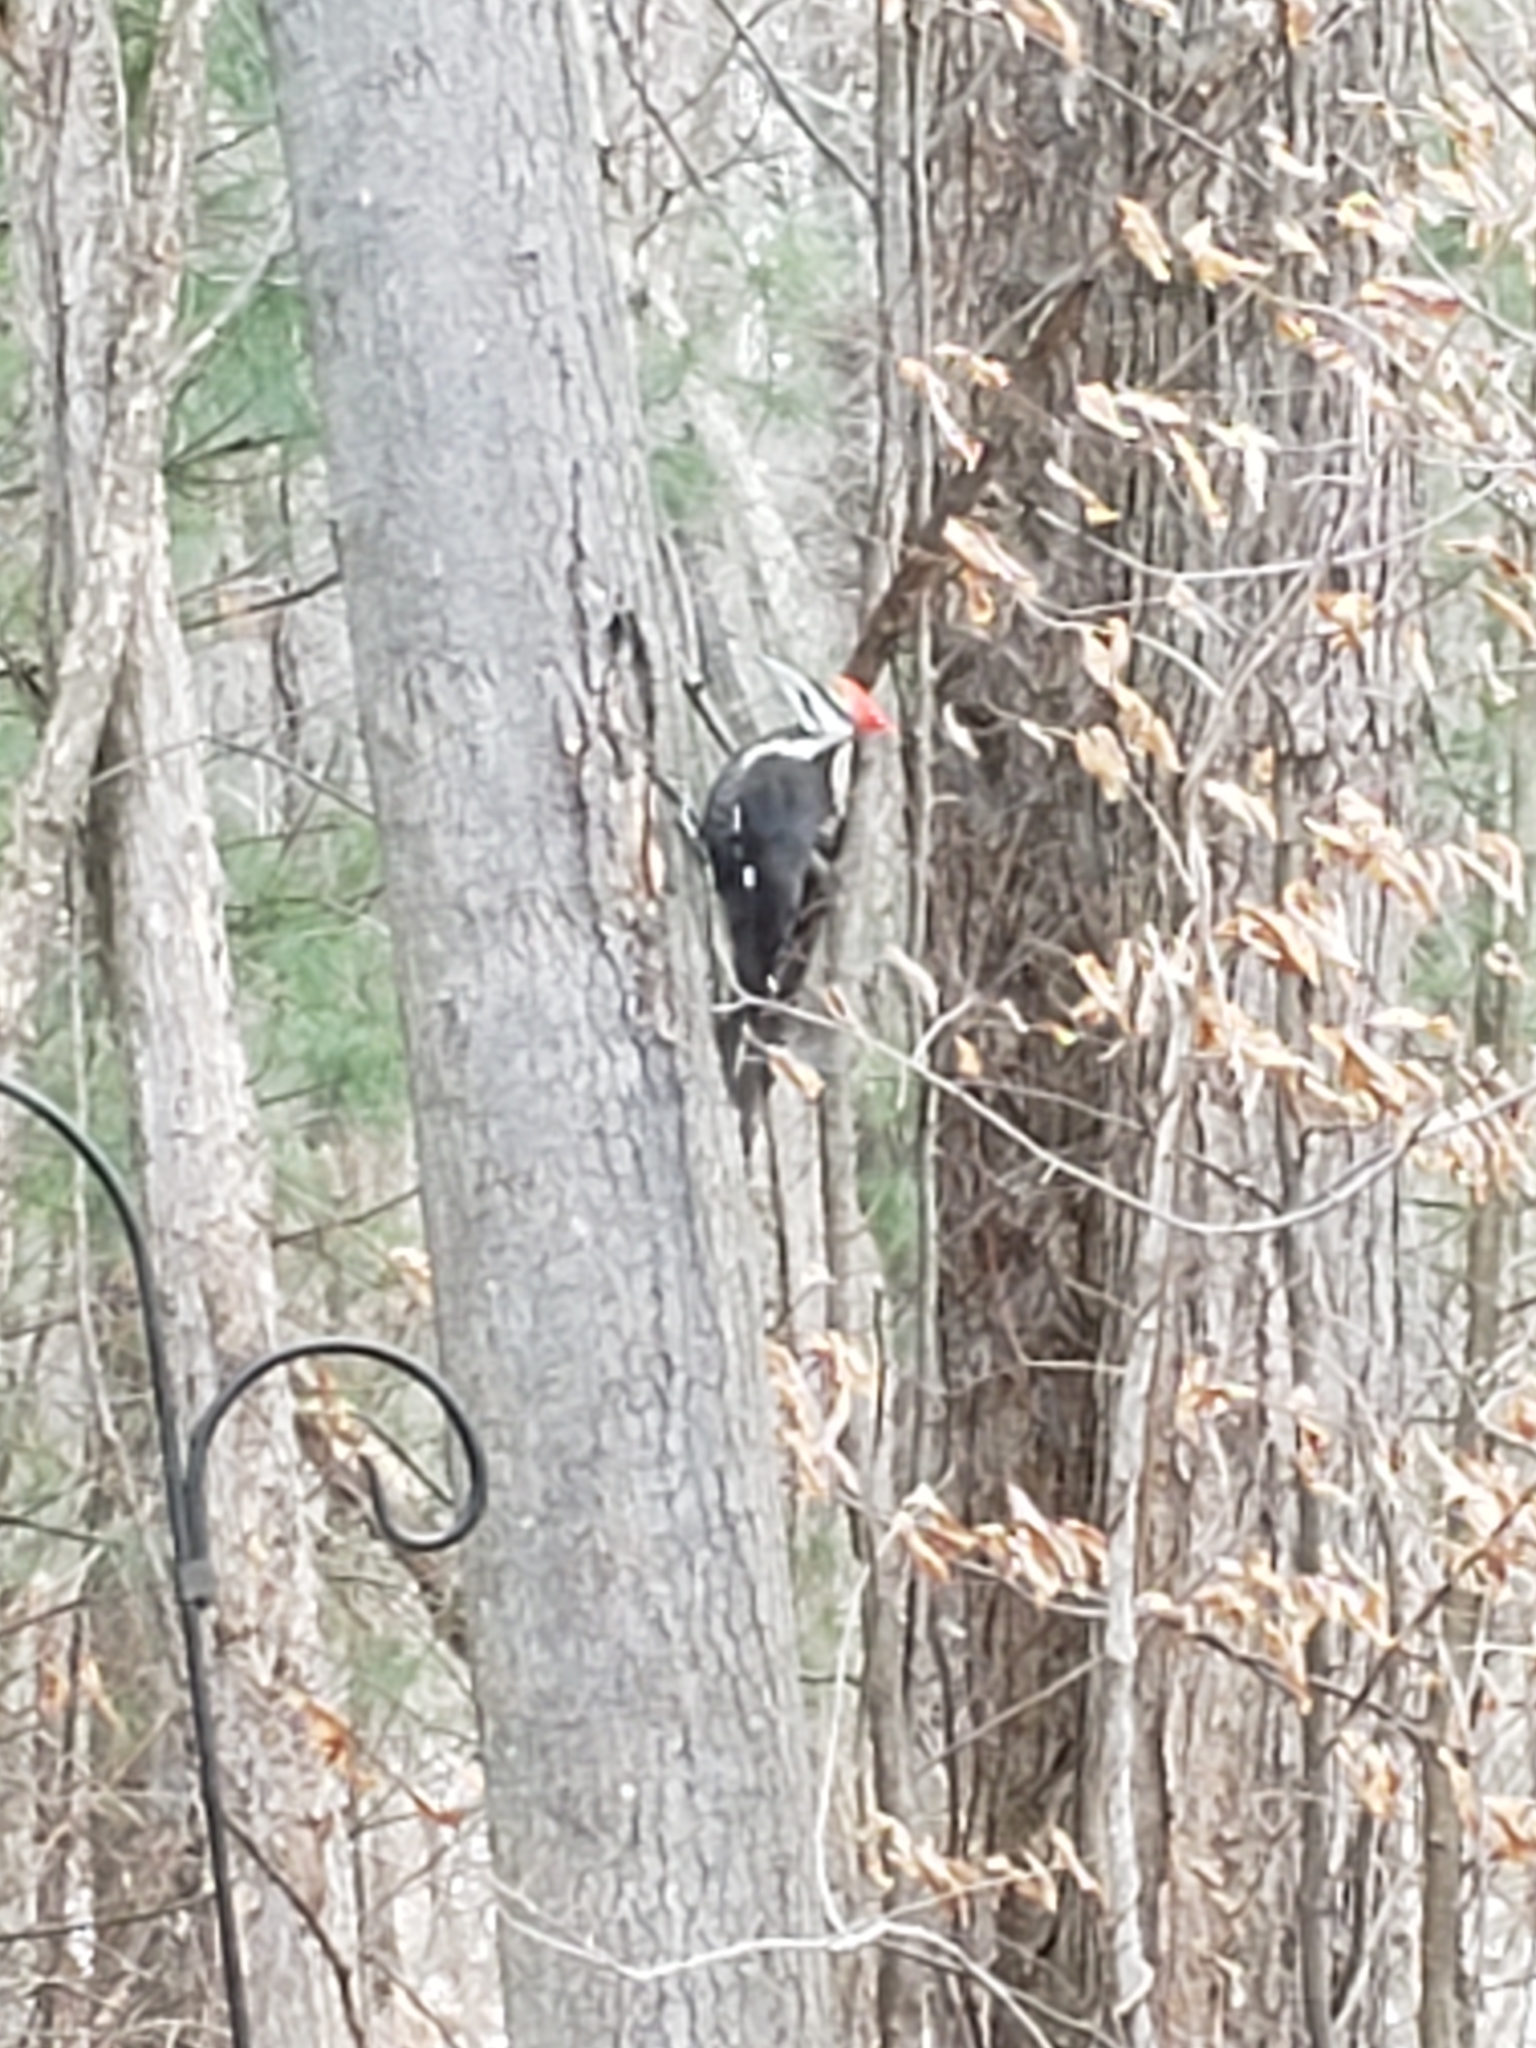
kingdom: Animalia
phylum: Chordata
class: Aves
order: Piciformes
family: Picidae
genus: Dryocopus
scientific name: Dryocopus pileatus
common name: Pileated woodpecker
